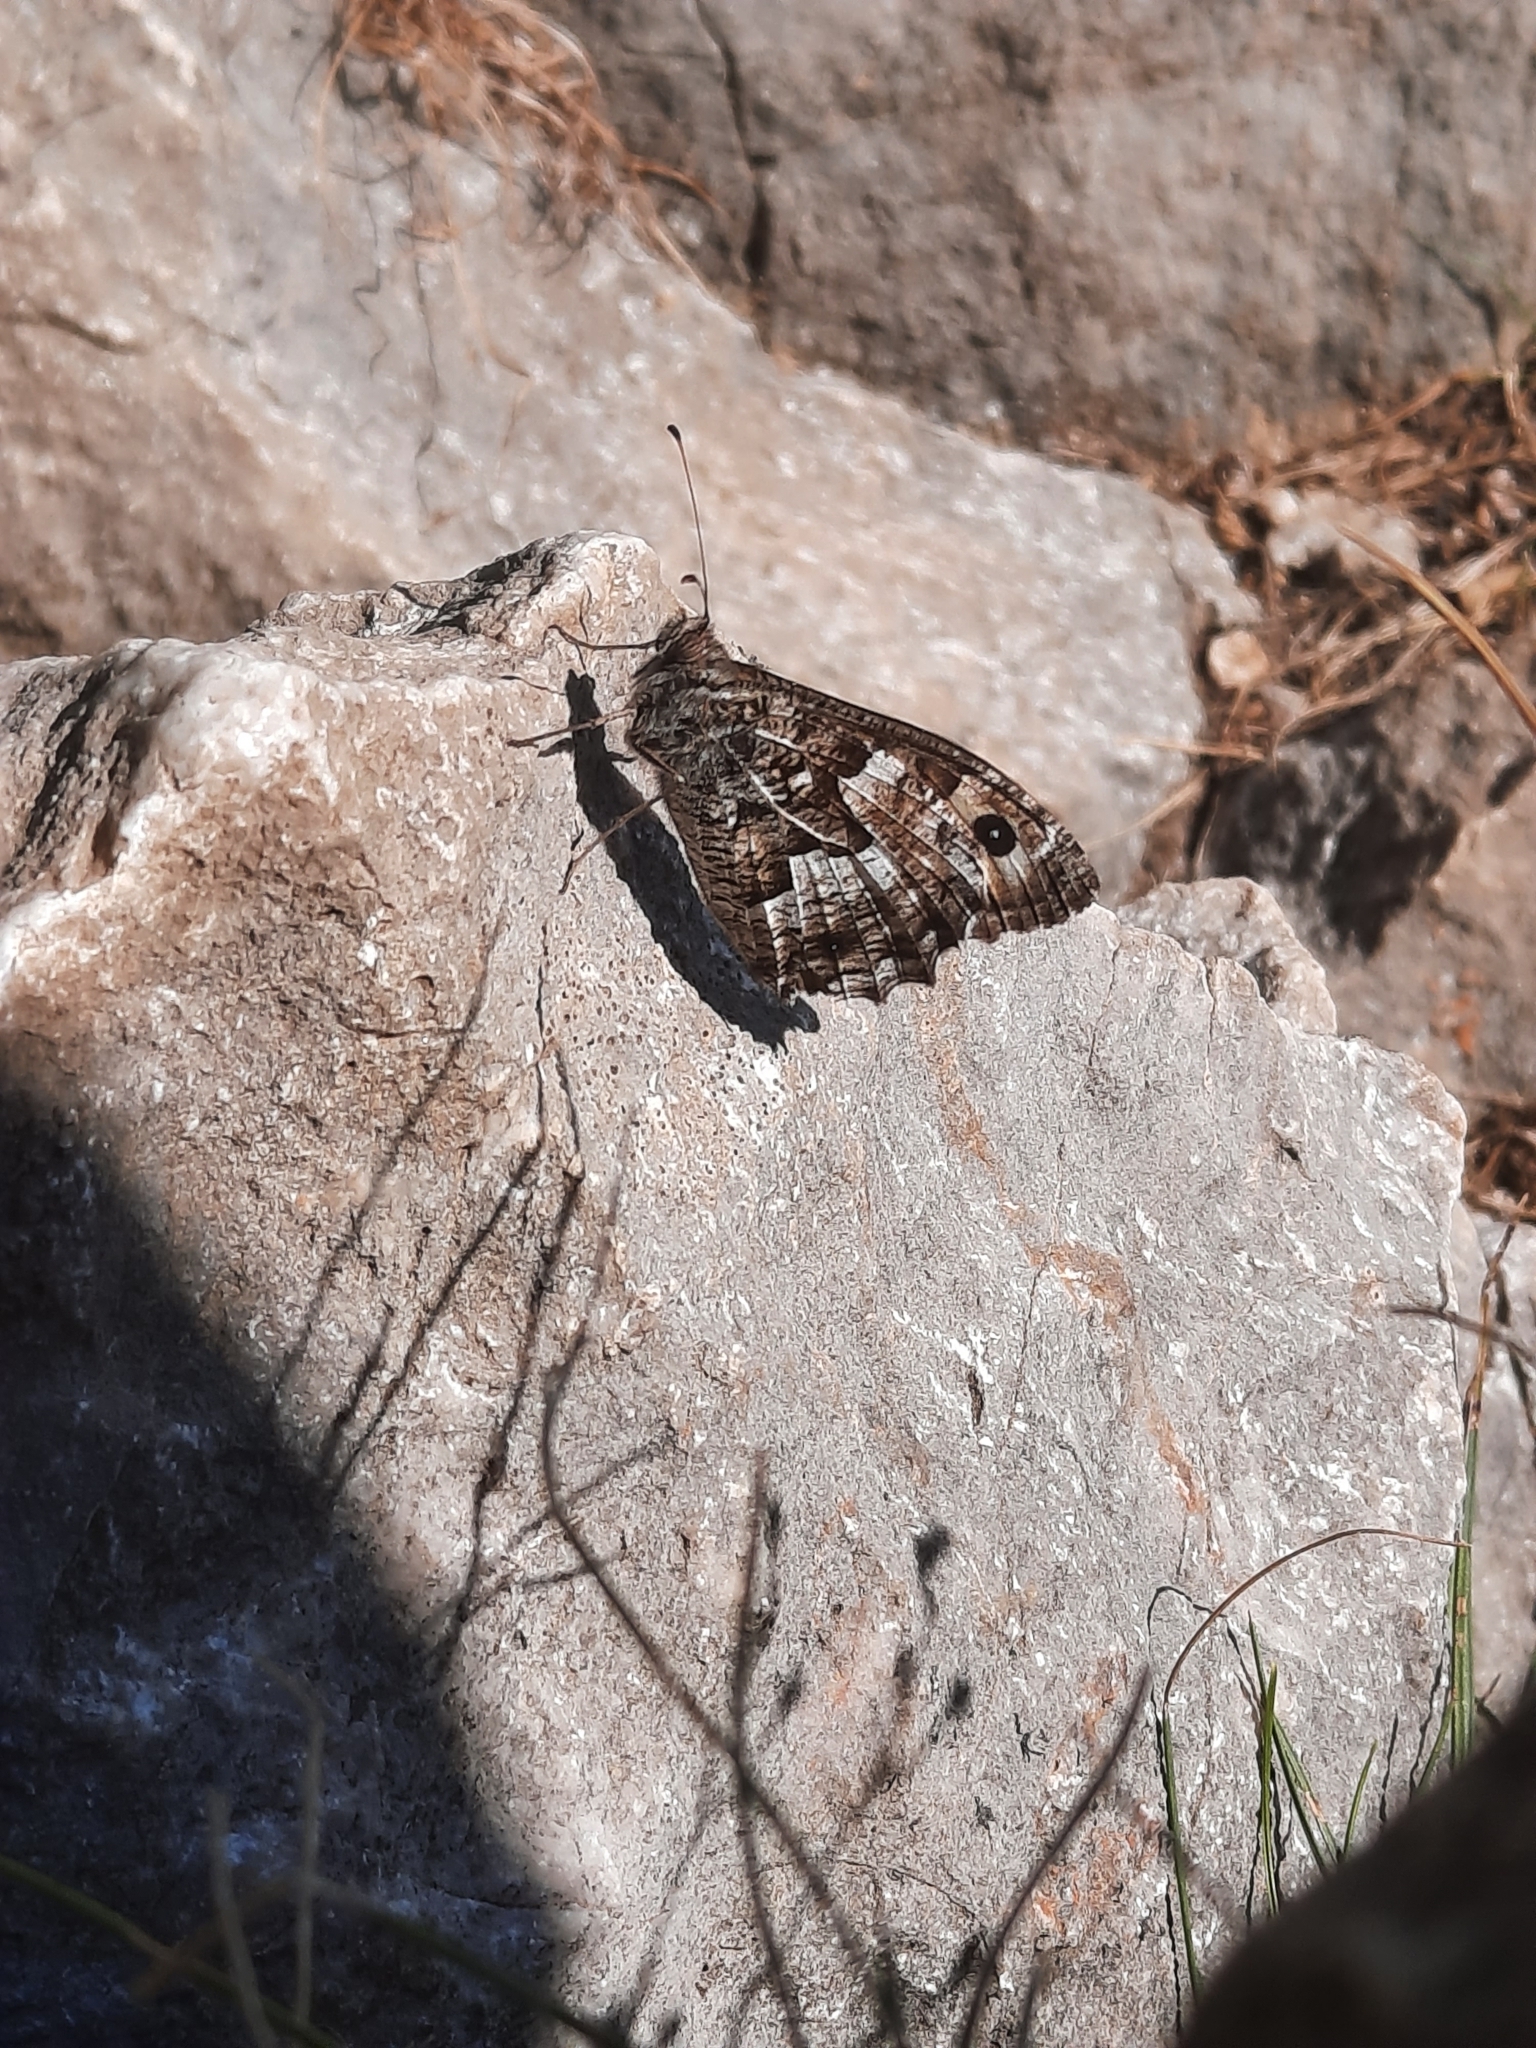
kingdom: Animalia
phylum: Arthropoda
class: Insecta
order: Lepidoptera
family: Nymphalidae
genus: Hipparchia
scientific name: Hipparchia semele
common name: Grayling
